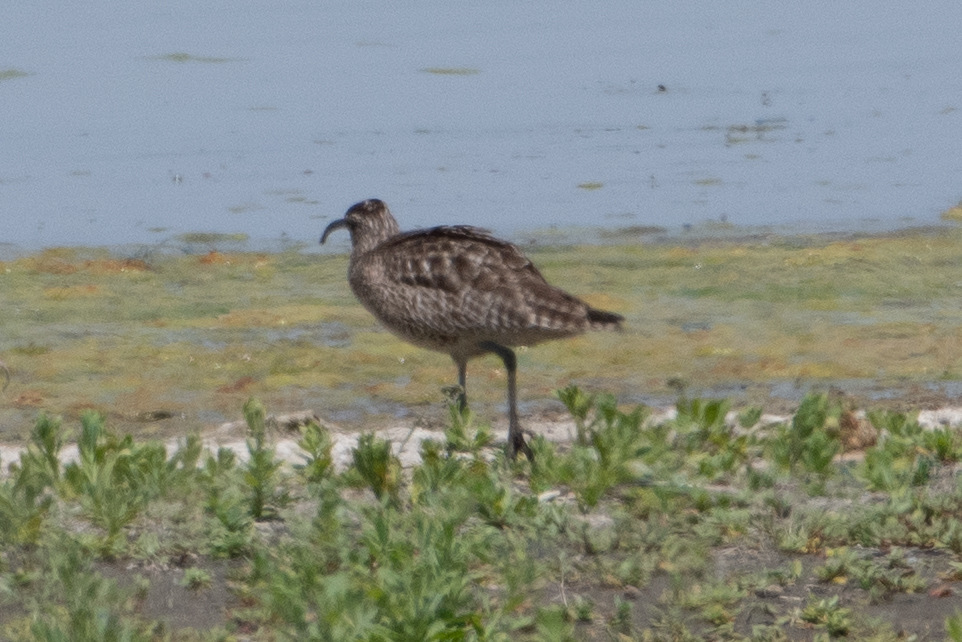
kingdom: Animalia
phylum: Chordata
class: Aves
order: Charadriiformes
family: Scolopacidae
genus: Numenius
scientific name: Numenius phaeopus
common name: Whimbrel
